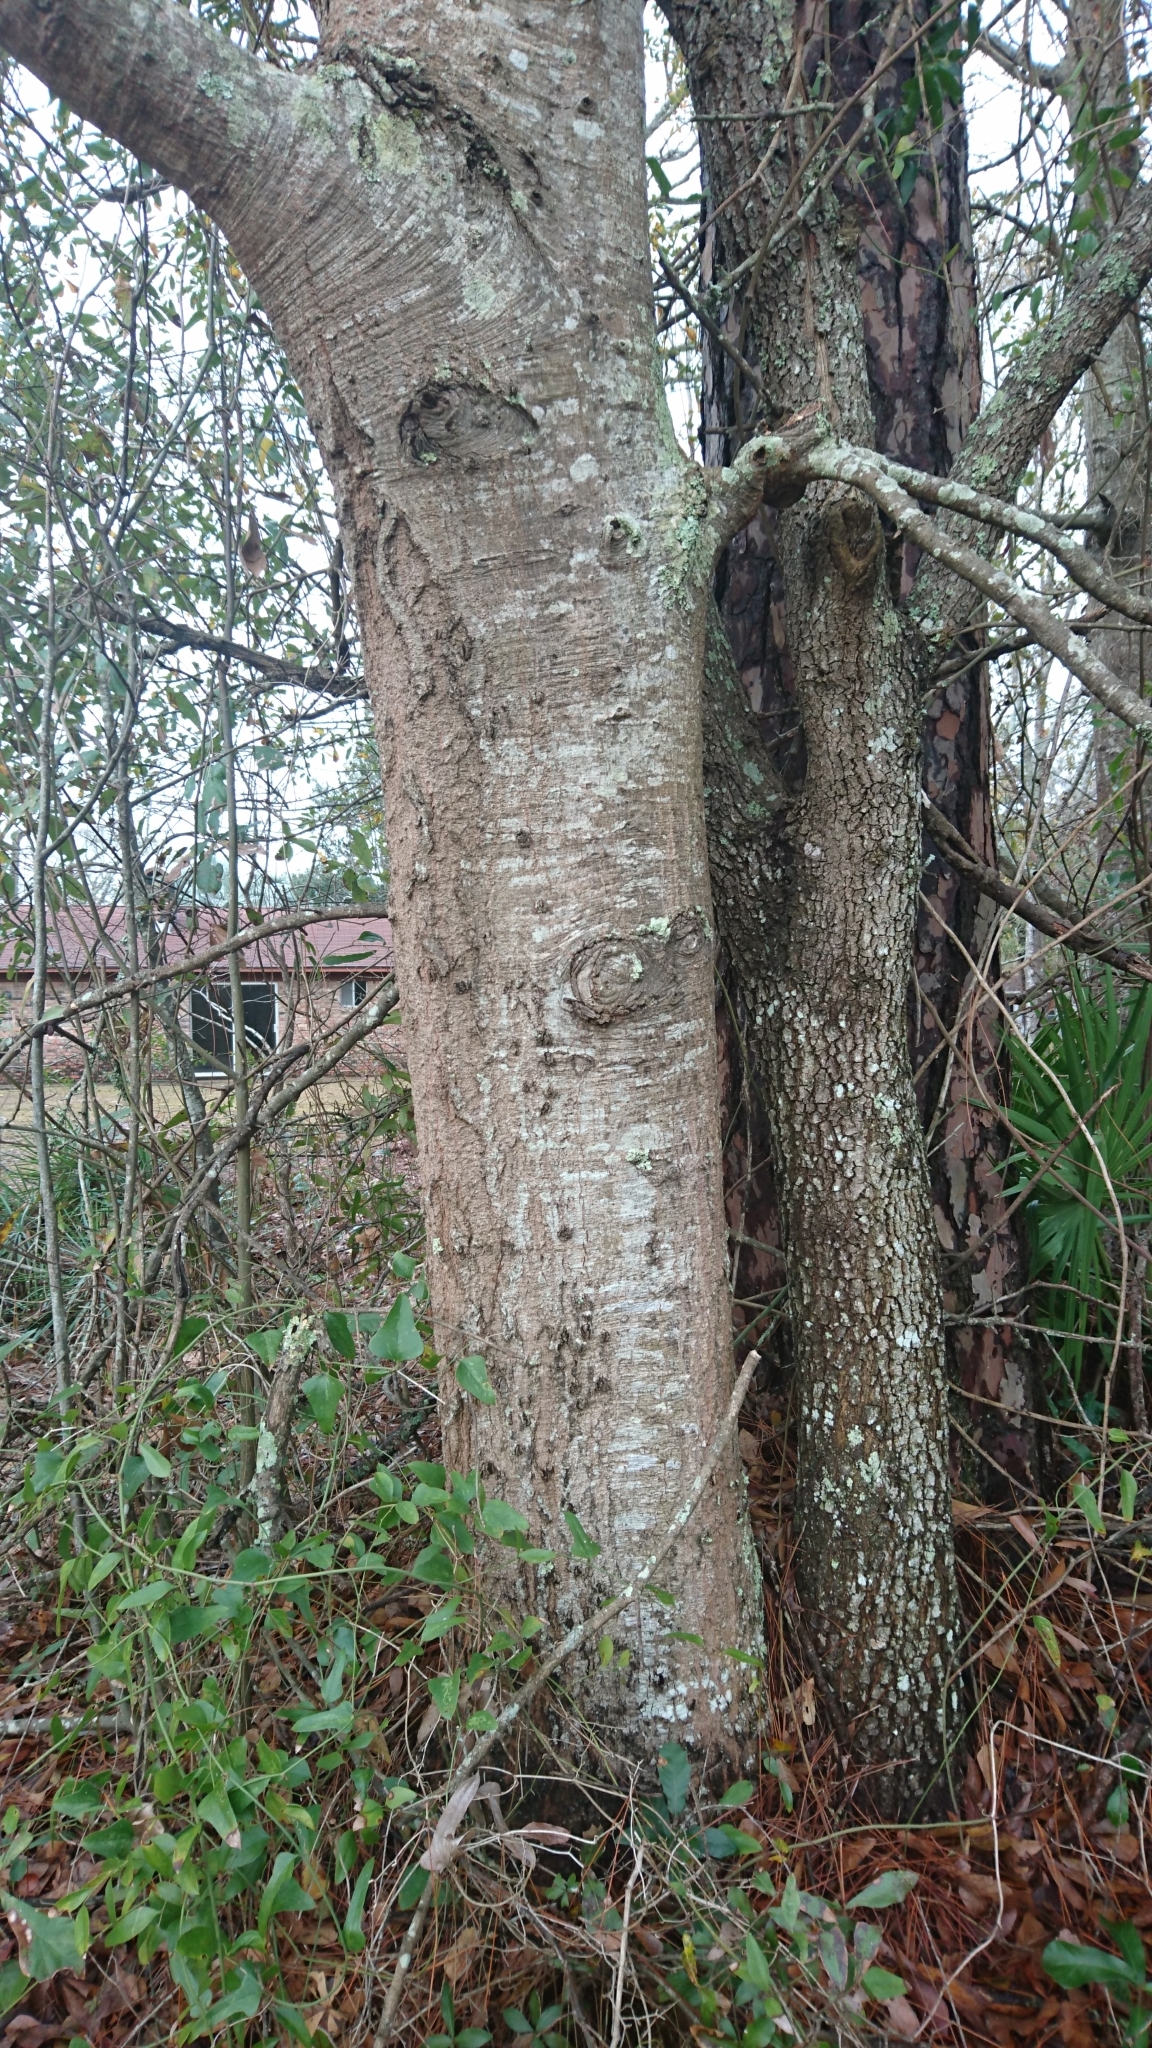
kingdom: Plantae
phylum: Tracheophyta
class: Magnoliopsida
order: Fagales
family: Fagaceae
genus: Quercus
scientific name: Quercus nigra
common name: Water oak
